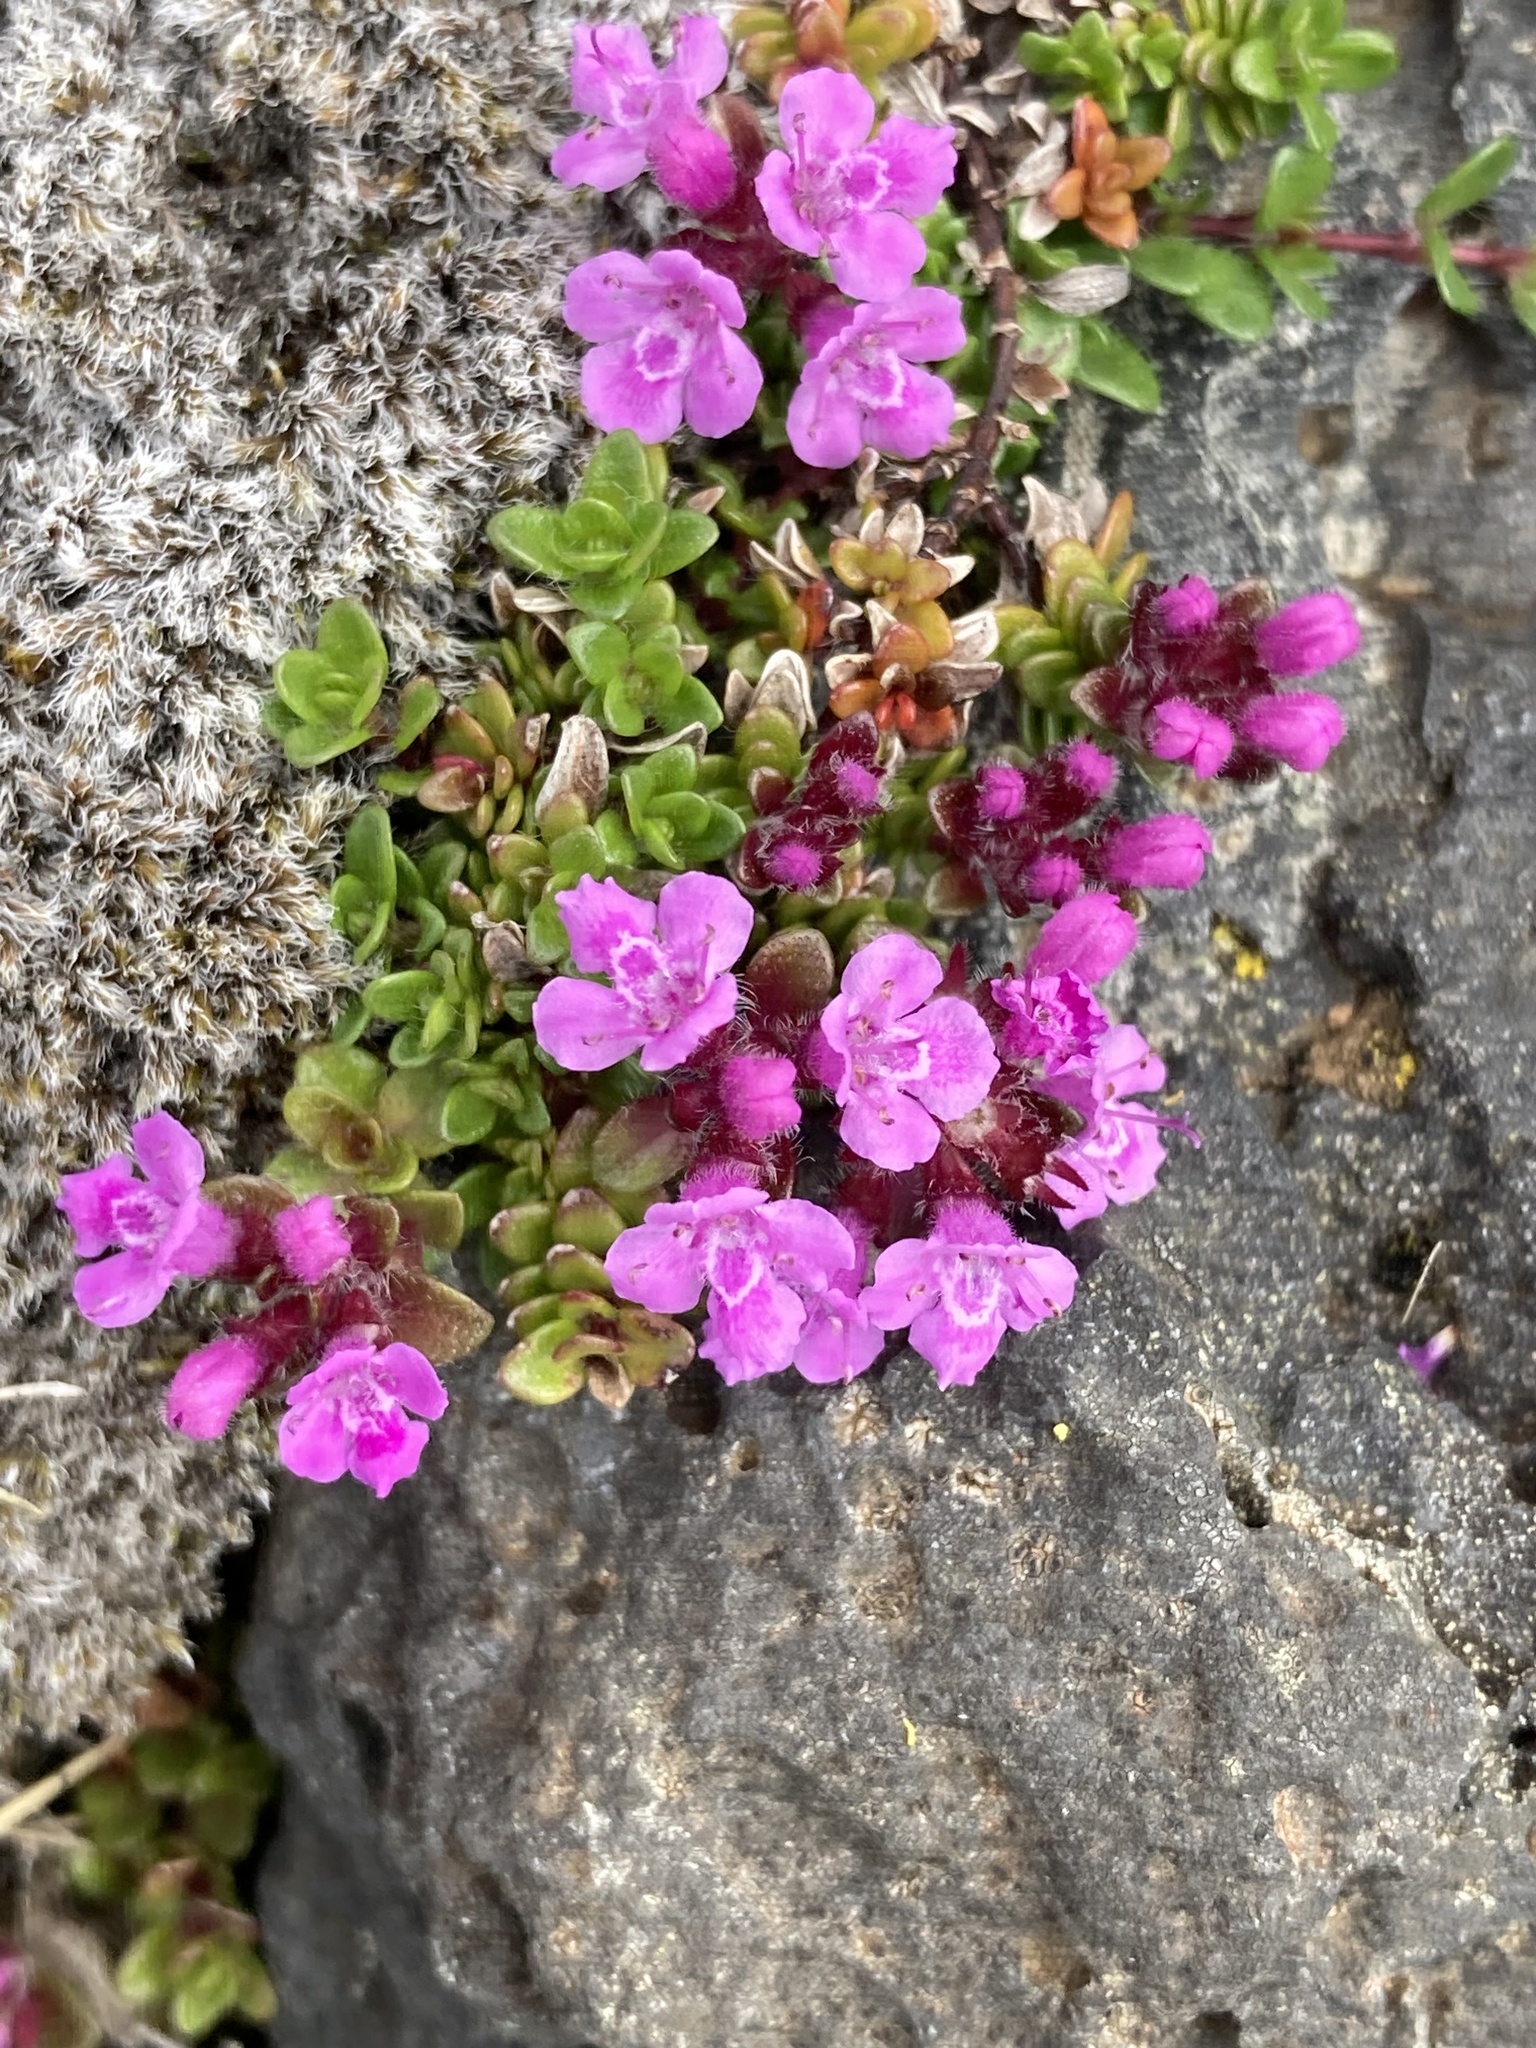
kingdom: Plantae
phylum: Tracheophyta
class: Magnoliopsida
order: Lamiales
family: Lamiaceae
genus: Thymus
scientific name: Thymus praecox
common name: Wild thyme
